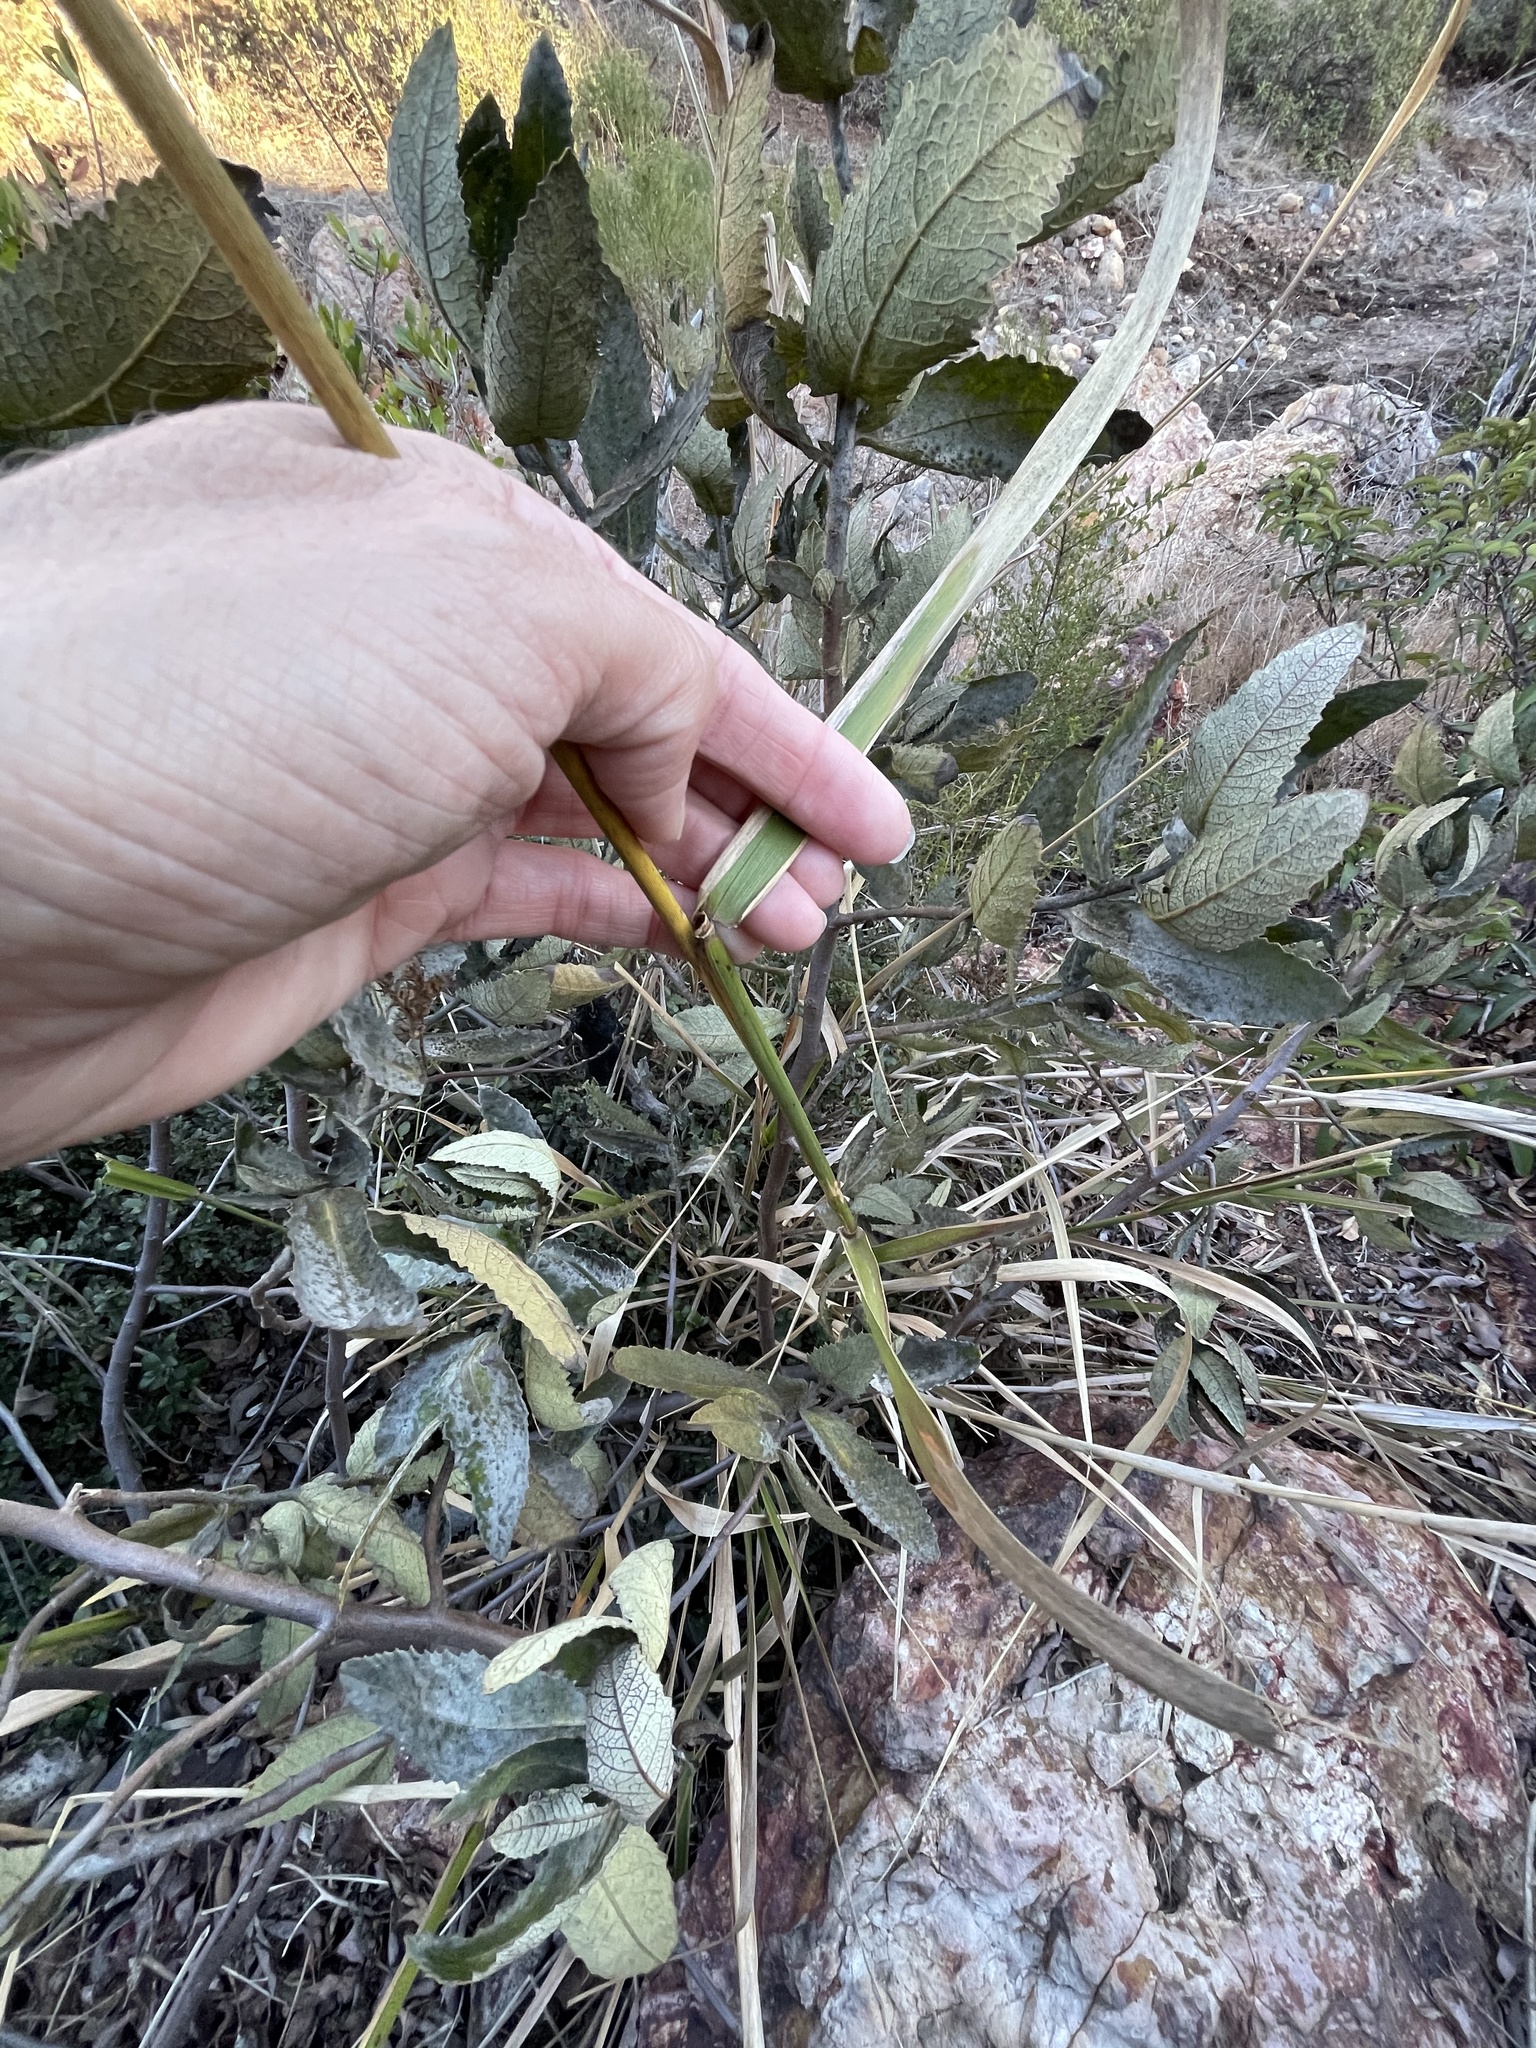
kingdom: Plantae
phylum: Tracheophyta
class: Liliopsida
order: Poales
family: Poaceae
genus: Leymus
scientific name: Leymus condensatus
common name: Giant wild rye
